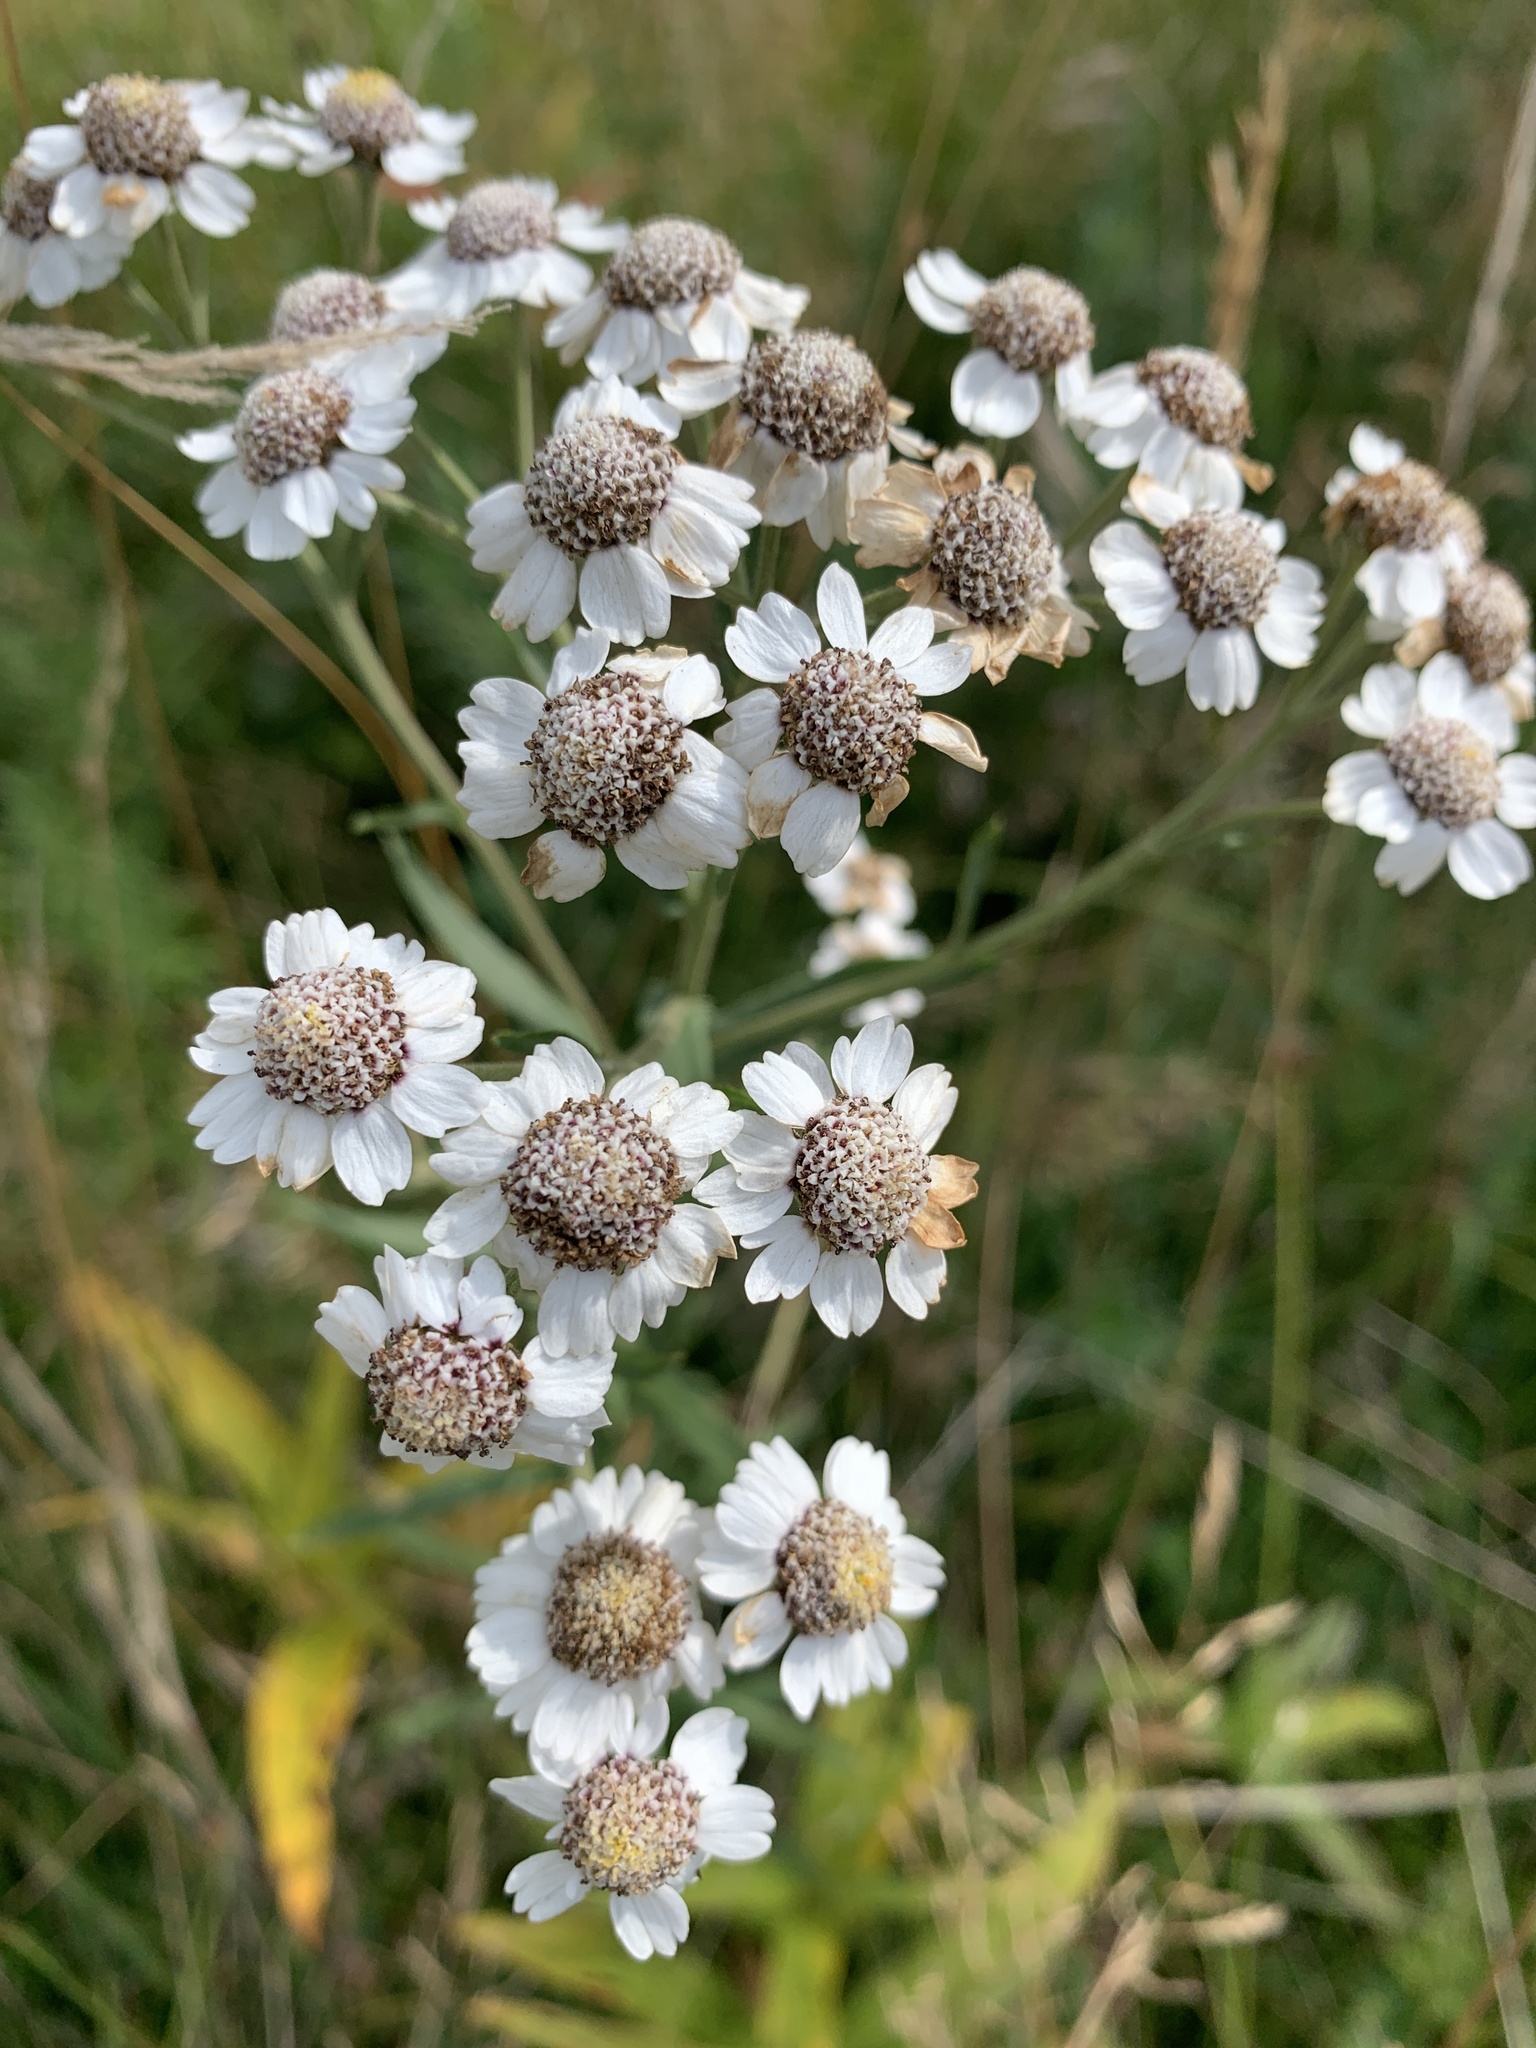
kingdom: Plantae
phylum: Tracheophyta
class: Magnoliopsida
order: Asterales
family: Asteraceae
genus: Achillea
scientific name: Achillea ptarmica
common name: Sneezeweed
